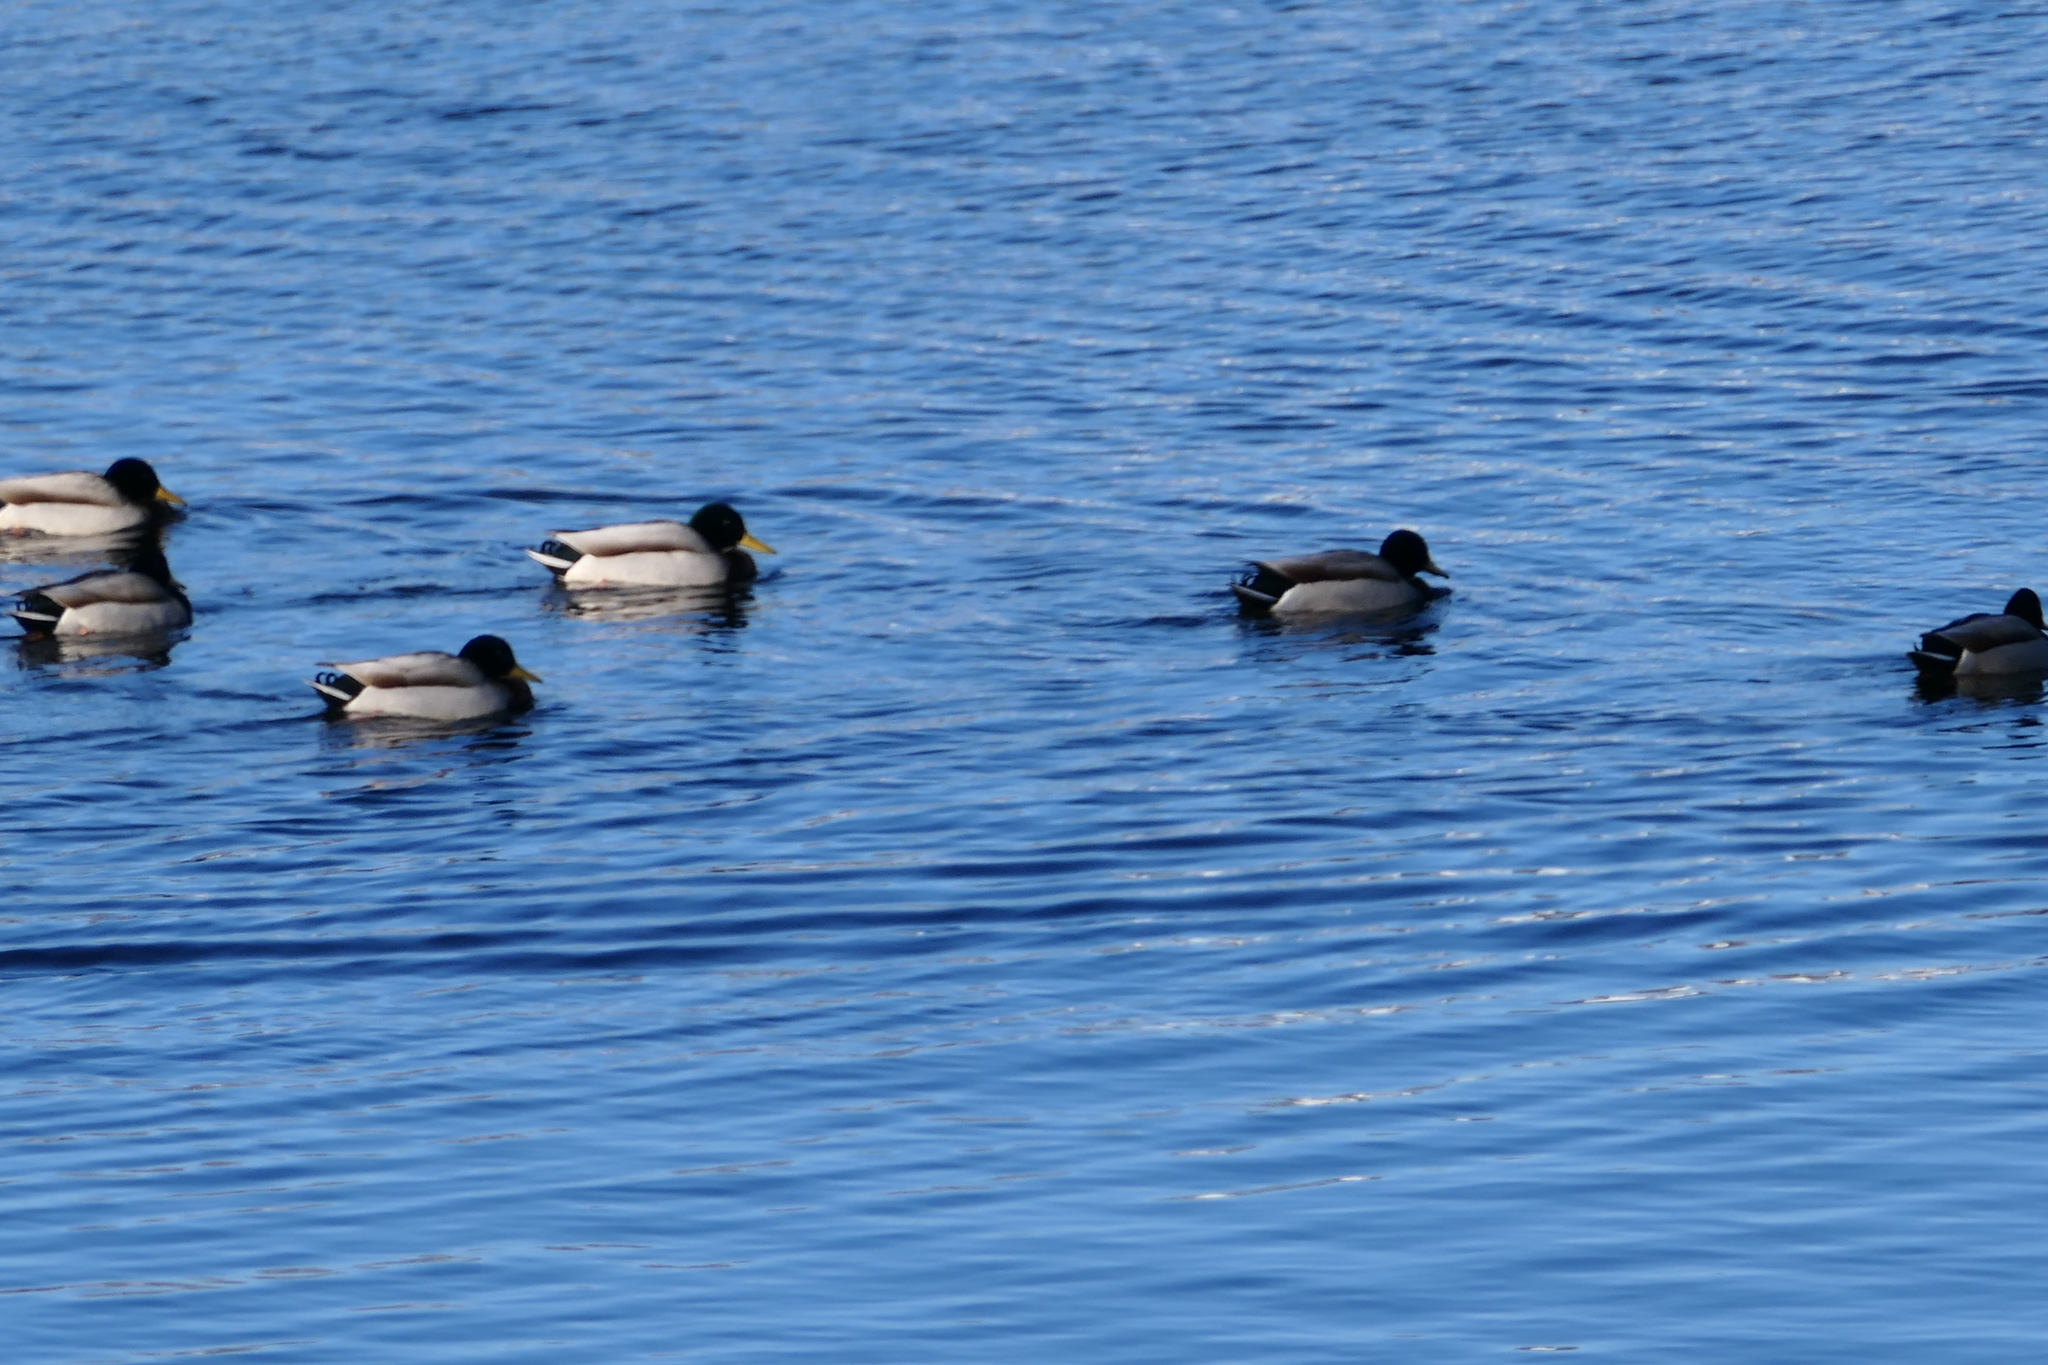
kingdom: Animalia
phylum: Chordata
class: Aves
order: Anseriformes
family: Anatidae
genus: Anas
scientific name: Anas platyrhynchos
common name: Mallard
